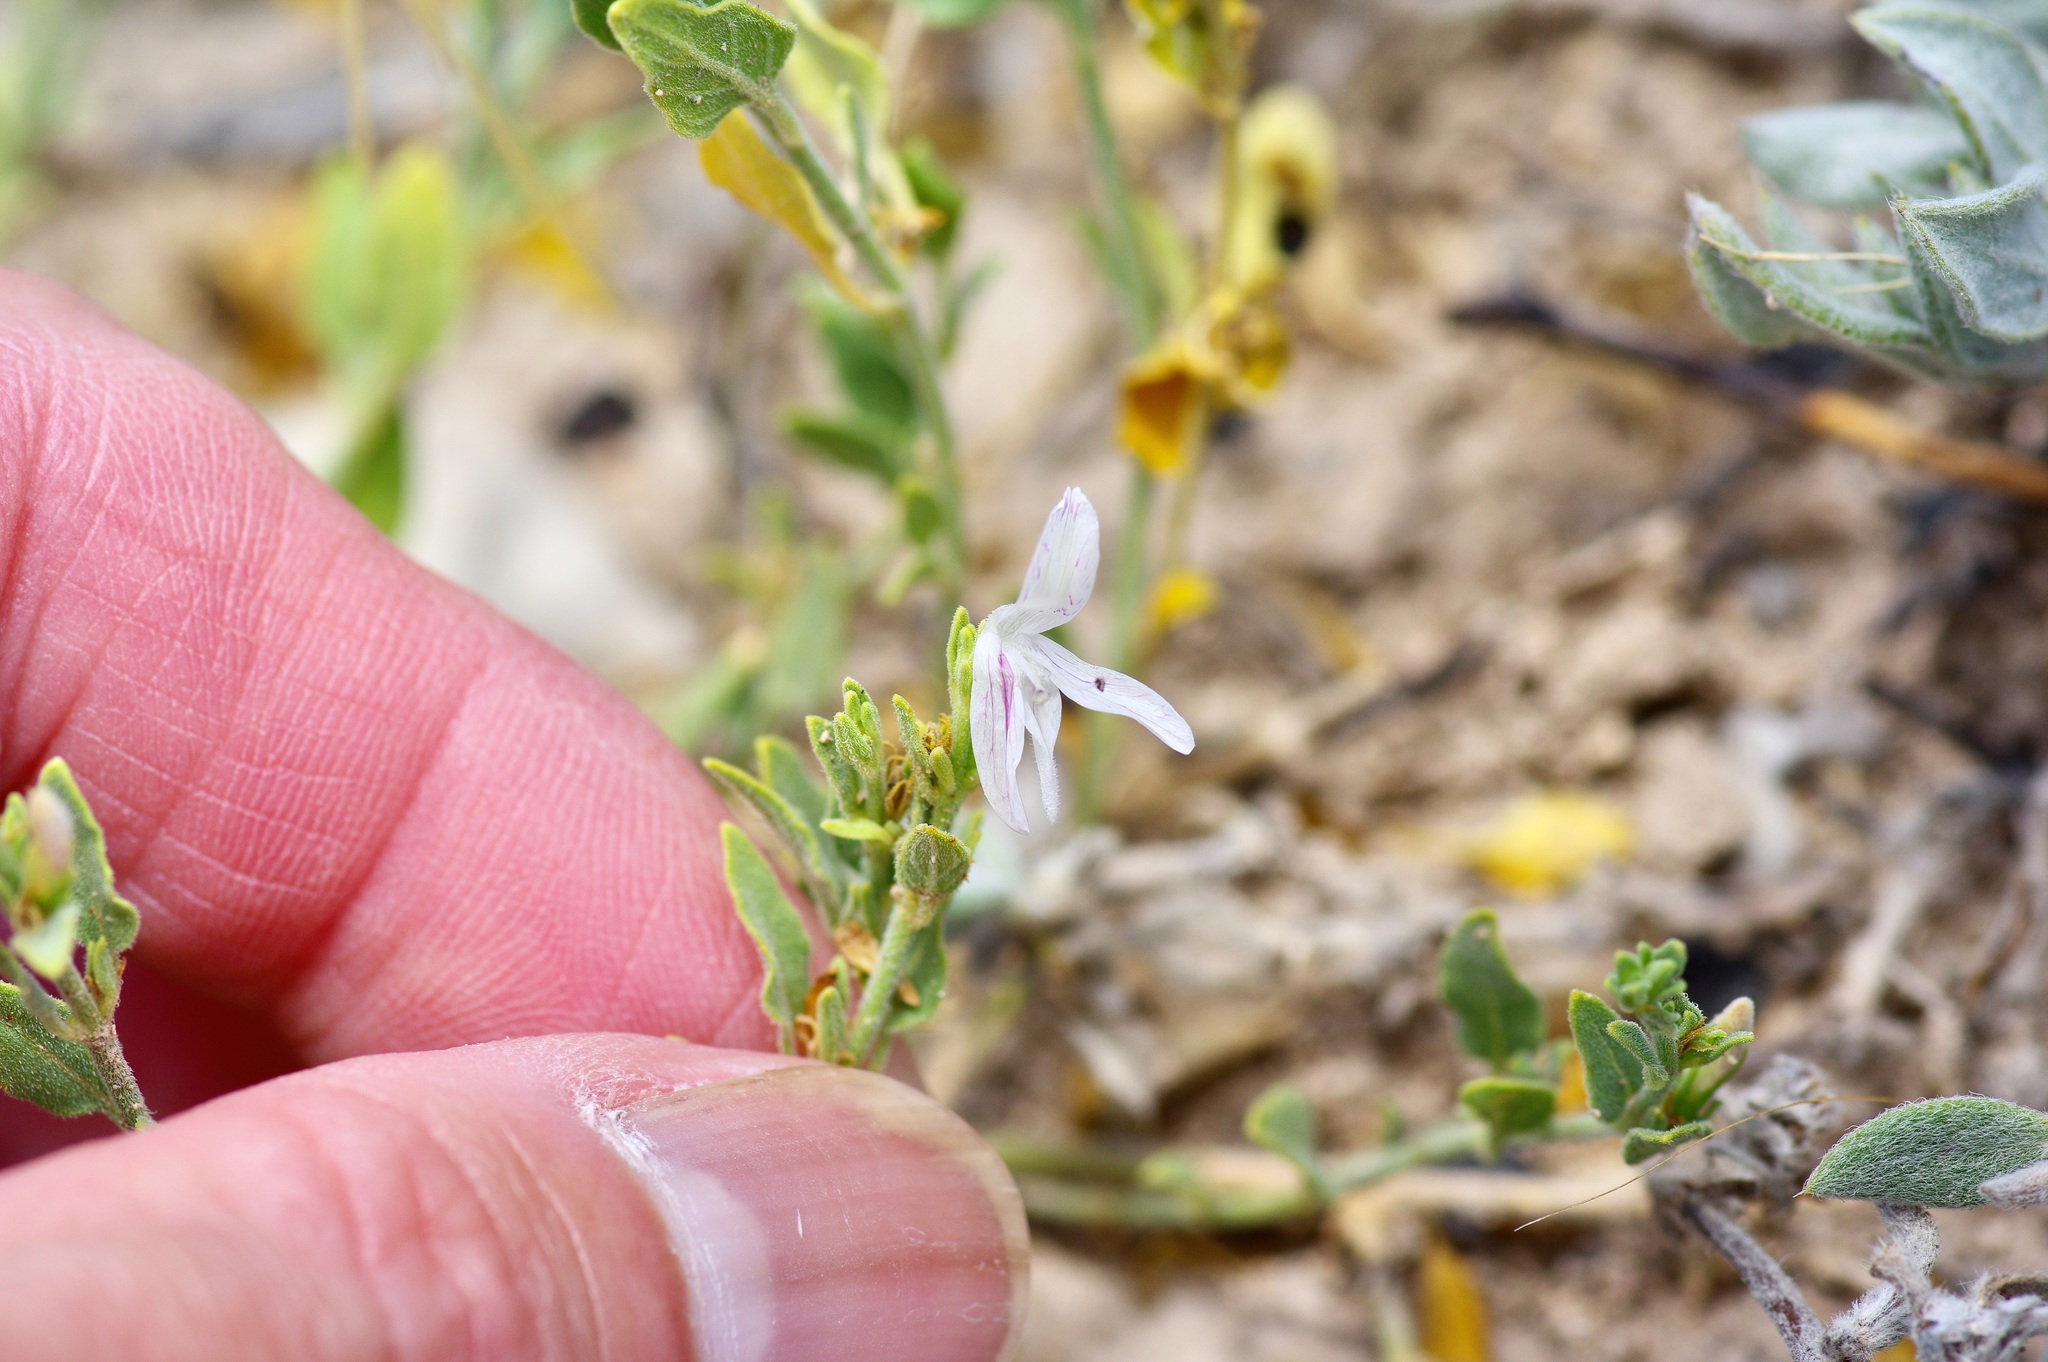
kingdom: Plantae
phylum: Tracheophyta
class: Magnoliopsida
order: Lamiales
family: Acanthaceae
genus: Carlowrightia
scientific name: Carlowrightia texana
